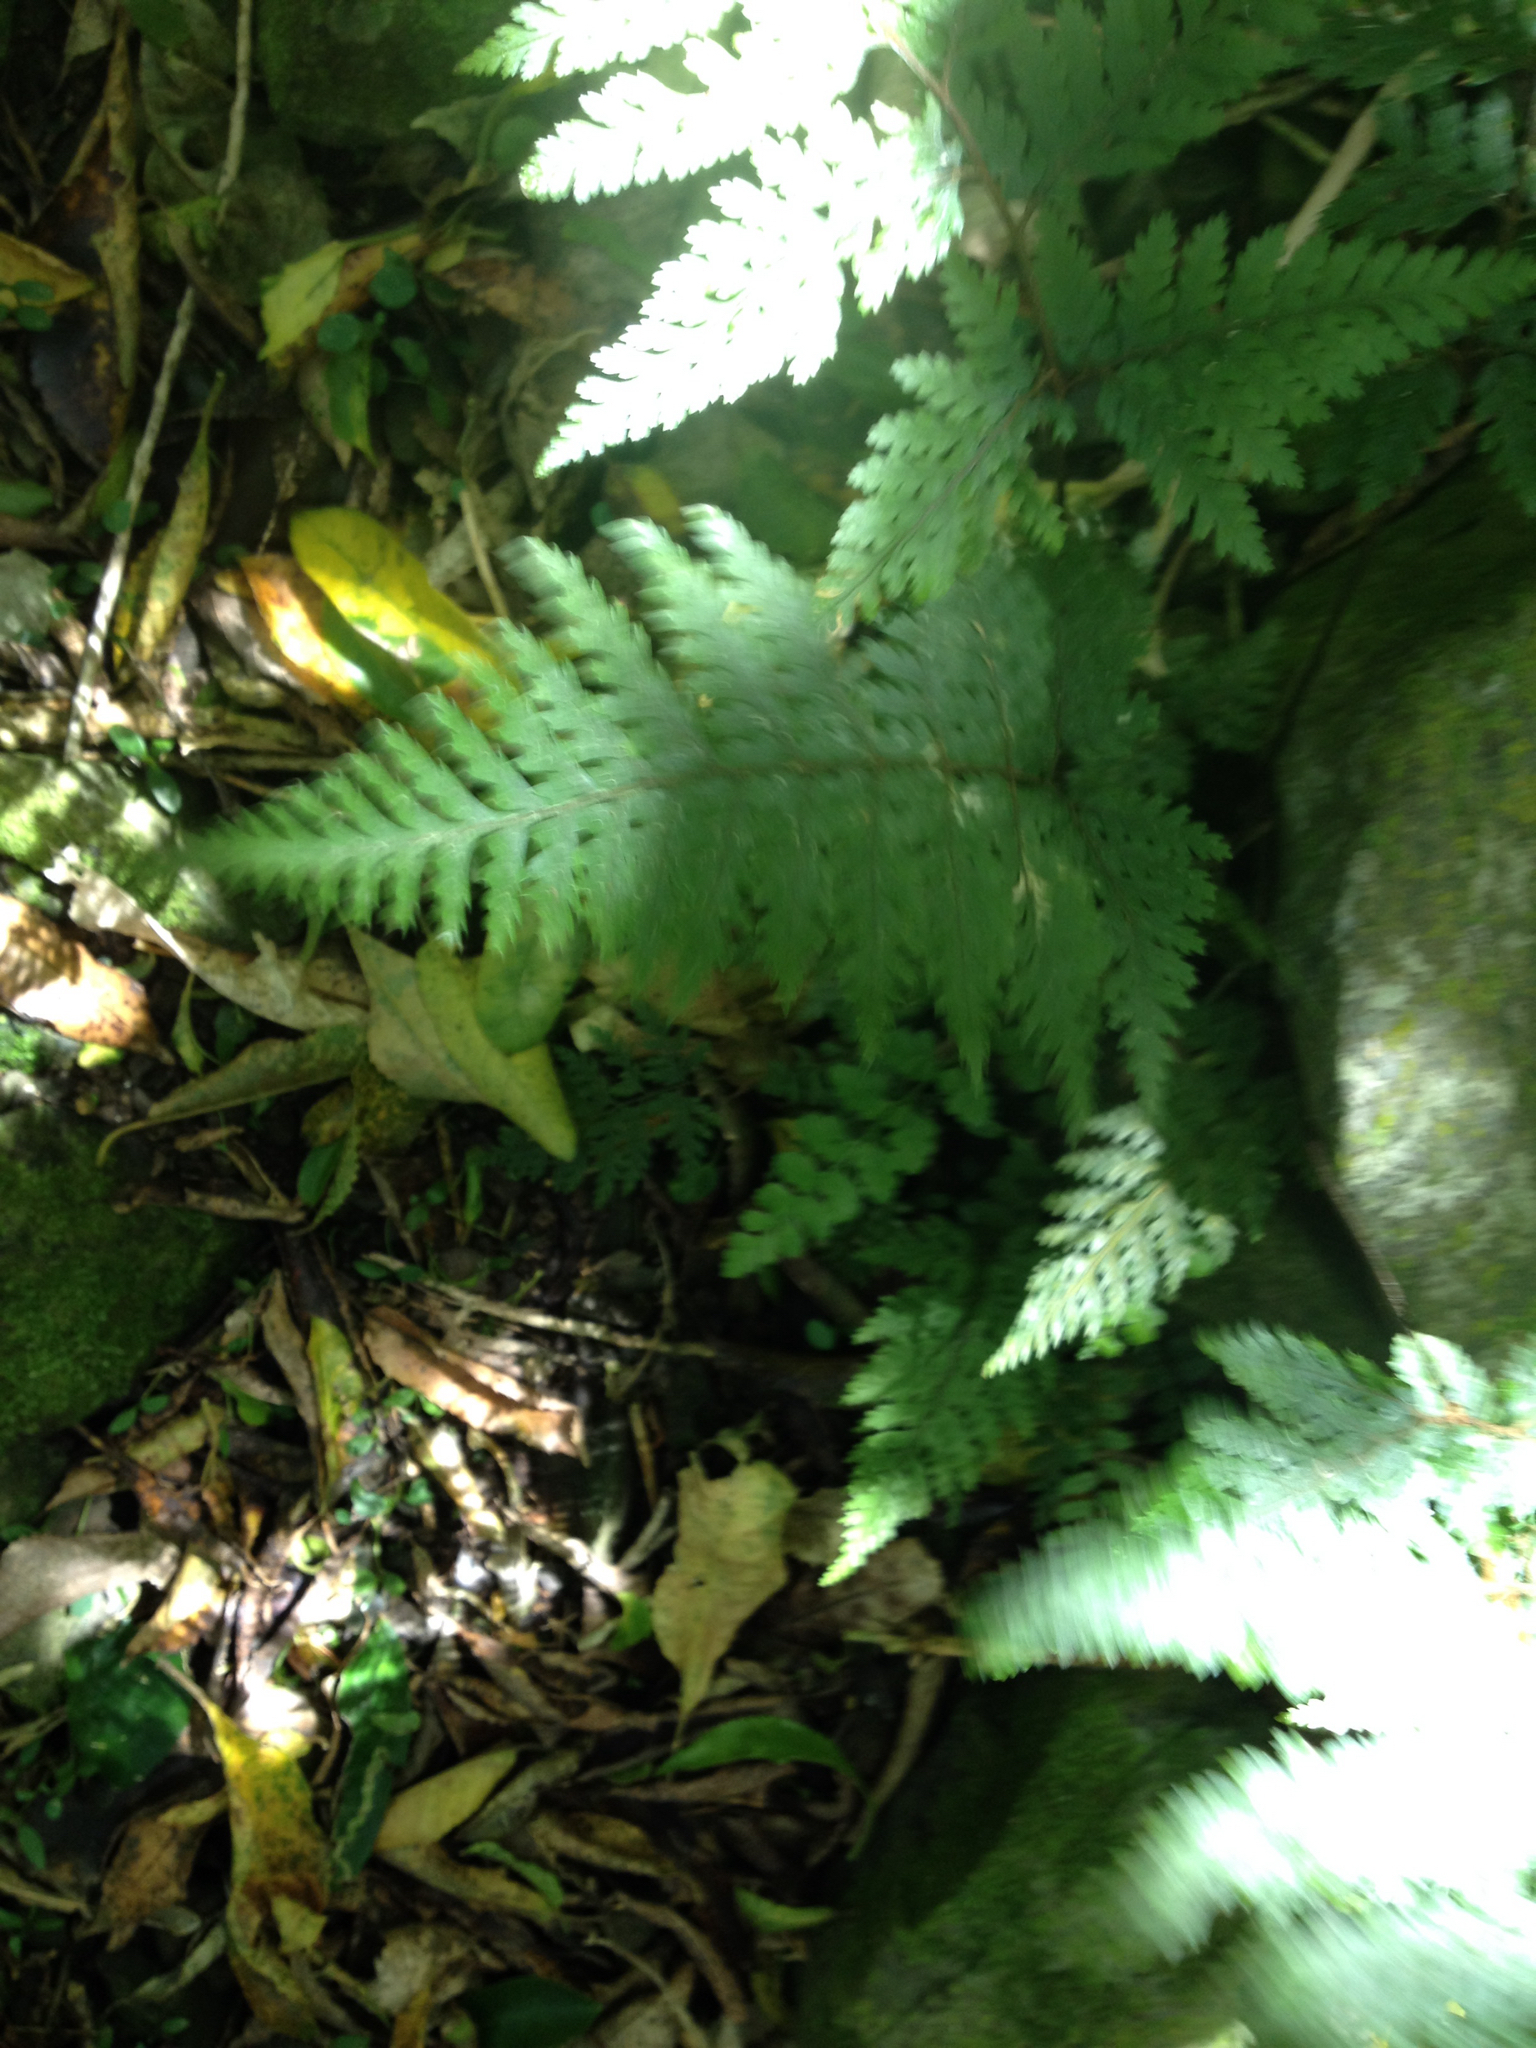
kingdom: Plantae
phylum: Tracheophyta
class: Polypodiopsida
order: Polypodiales
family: Dryopteridaceae
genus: Parapolystichum
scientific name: Parapolystichum glabellum
